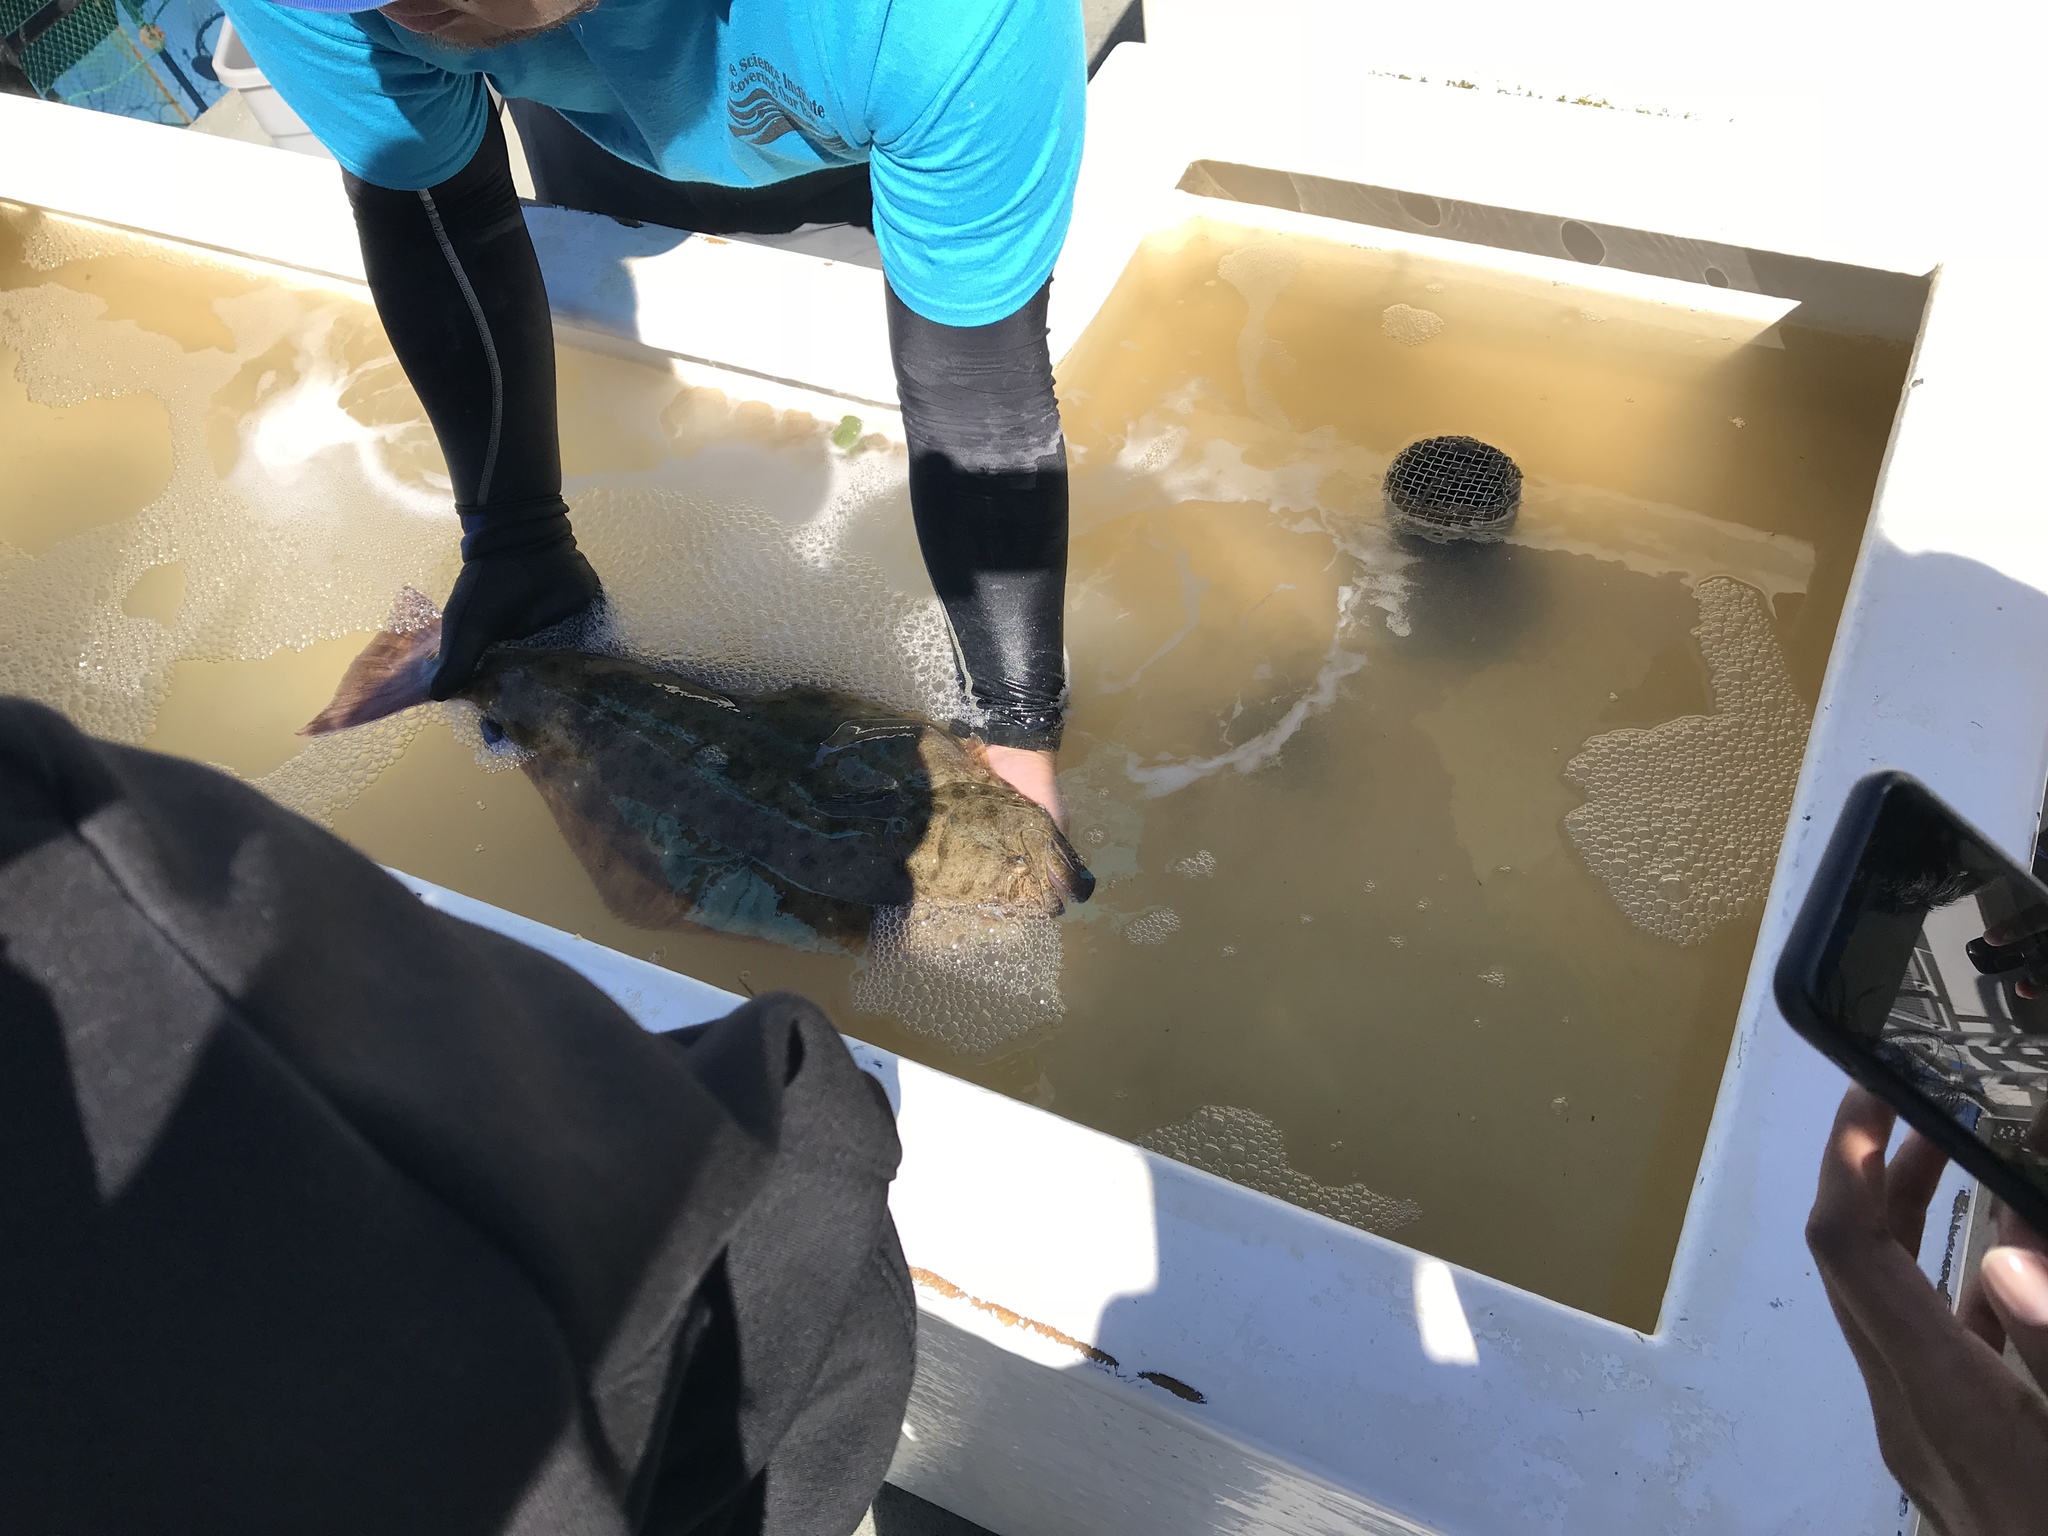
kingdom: Animalia
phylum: Chordata
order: Pleuronectiformes
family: Paralichthyidae
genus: Paralichthys
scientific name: Paralichthys californicus
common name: California halibut
